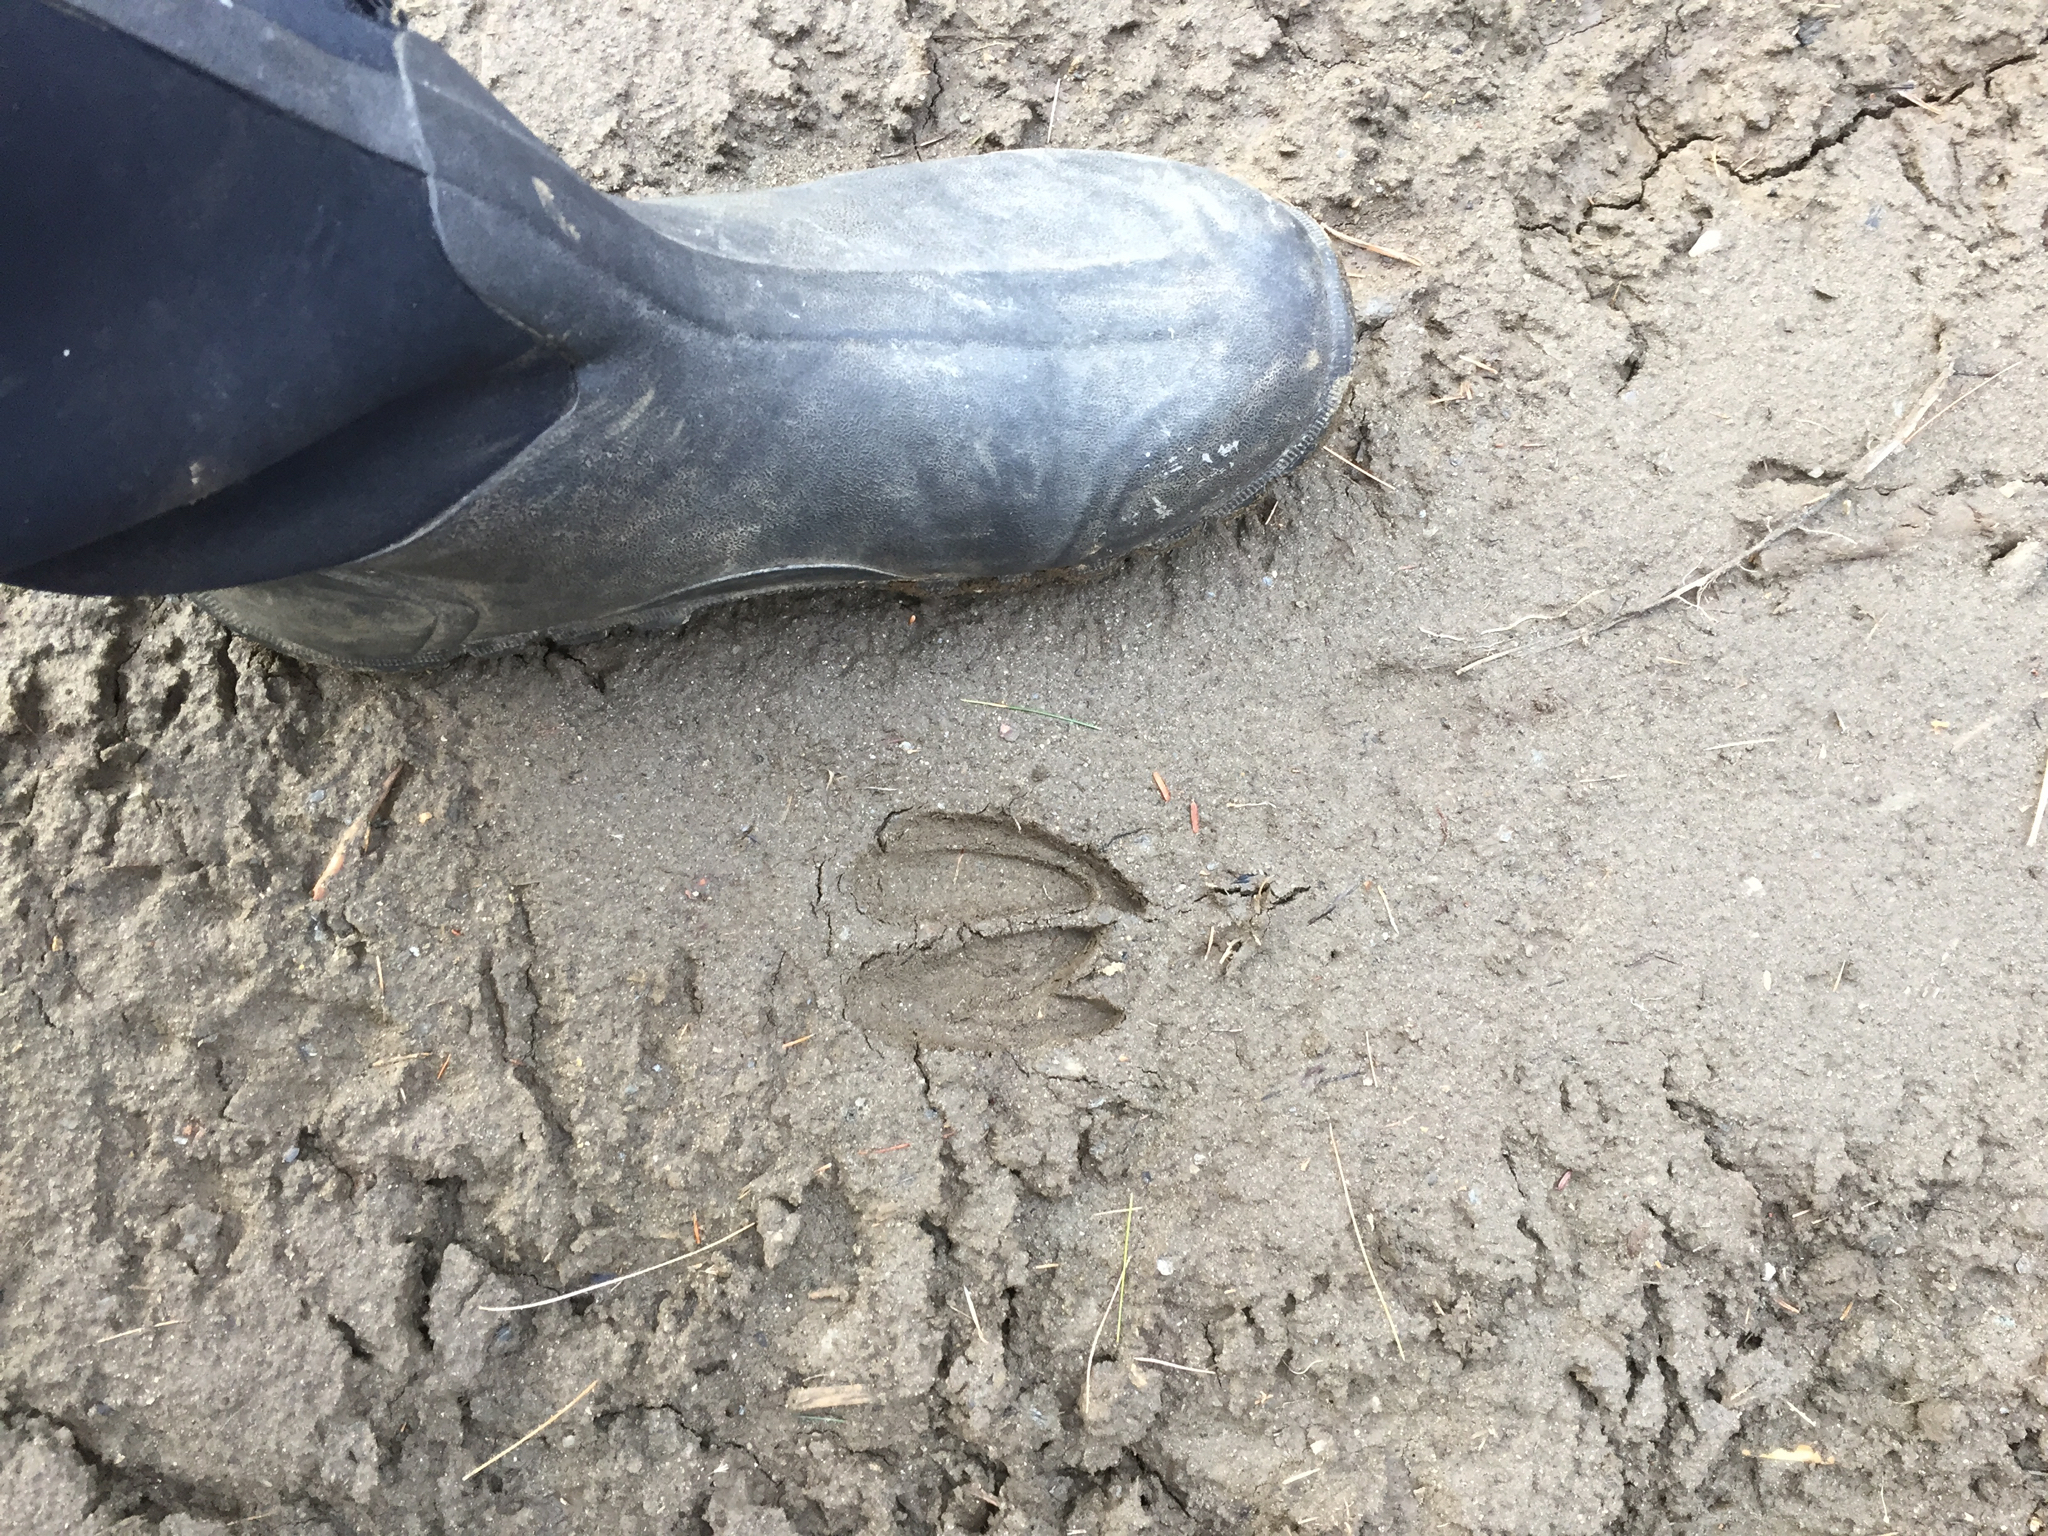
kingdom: Animalia
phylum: Chordata
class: Mammalia
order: Artiodactyla
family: Cervidae
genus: Odocoileus
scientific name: Odocoileus virginianus
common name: White-tailed deer
